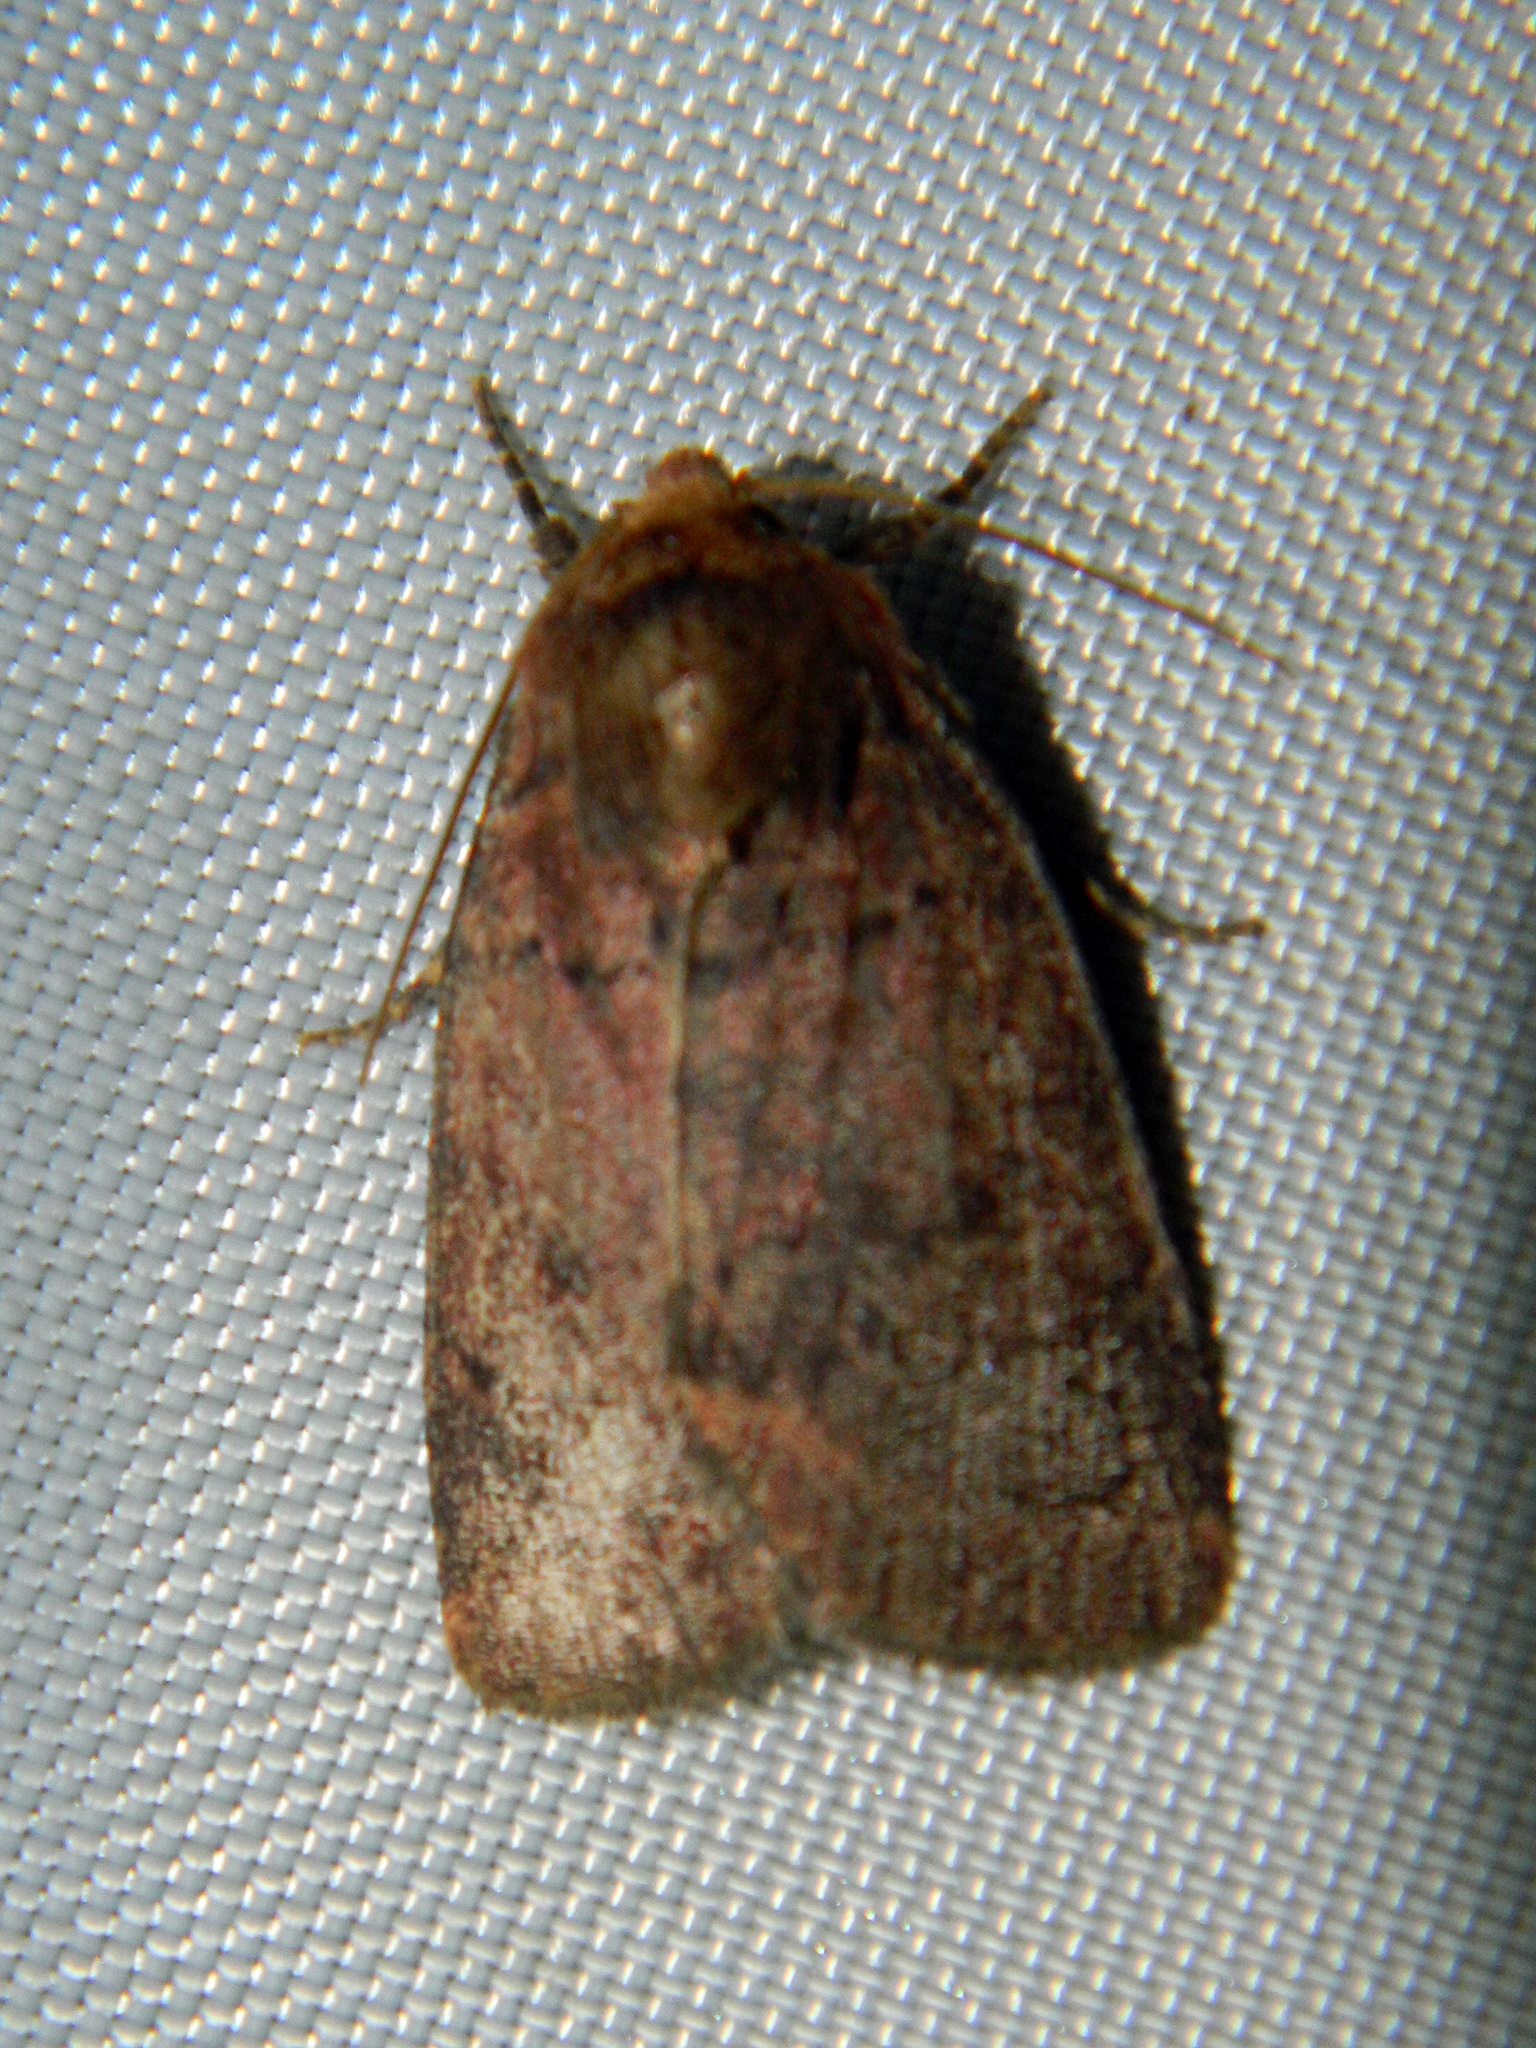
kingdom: Animalia
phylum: Arthropoda
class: Insecta
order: Lepidoptera
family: Noctuidae
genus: Orthodes
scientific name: Orthodes cynica
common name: Cynical quaker
